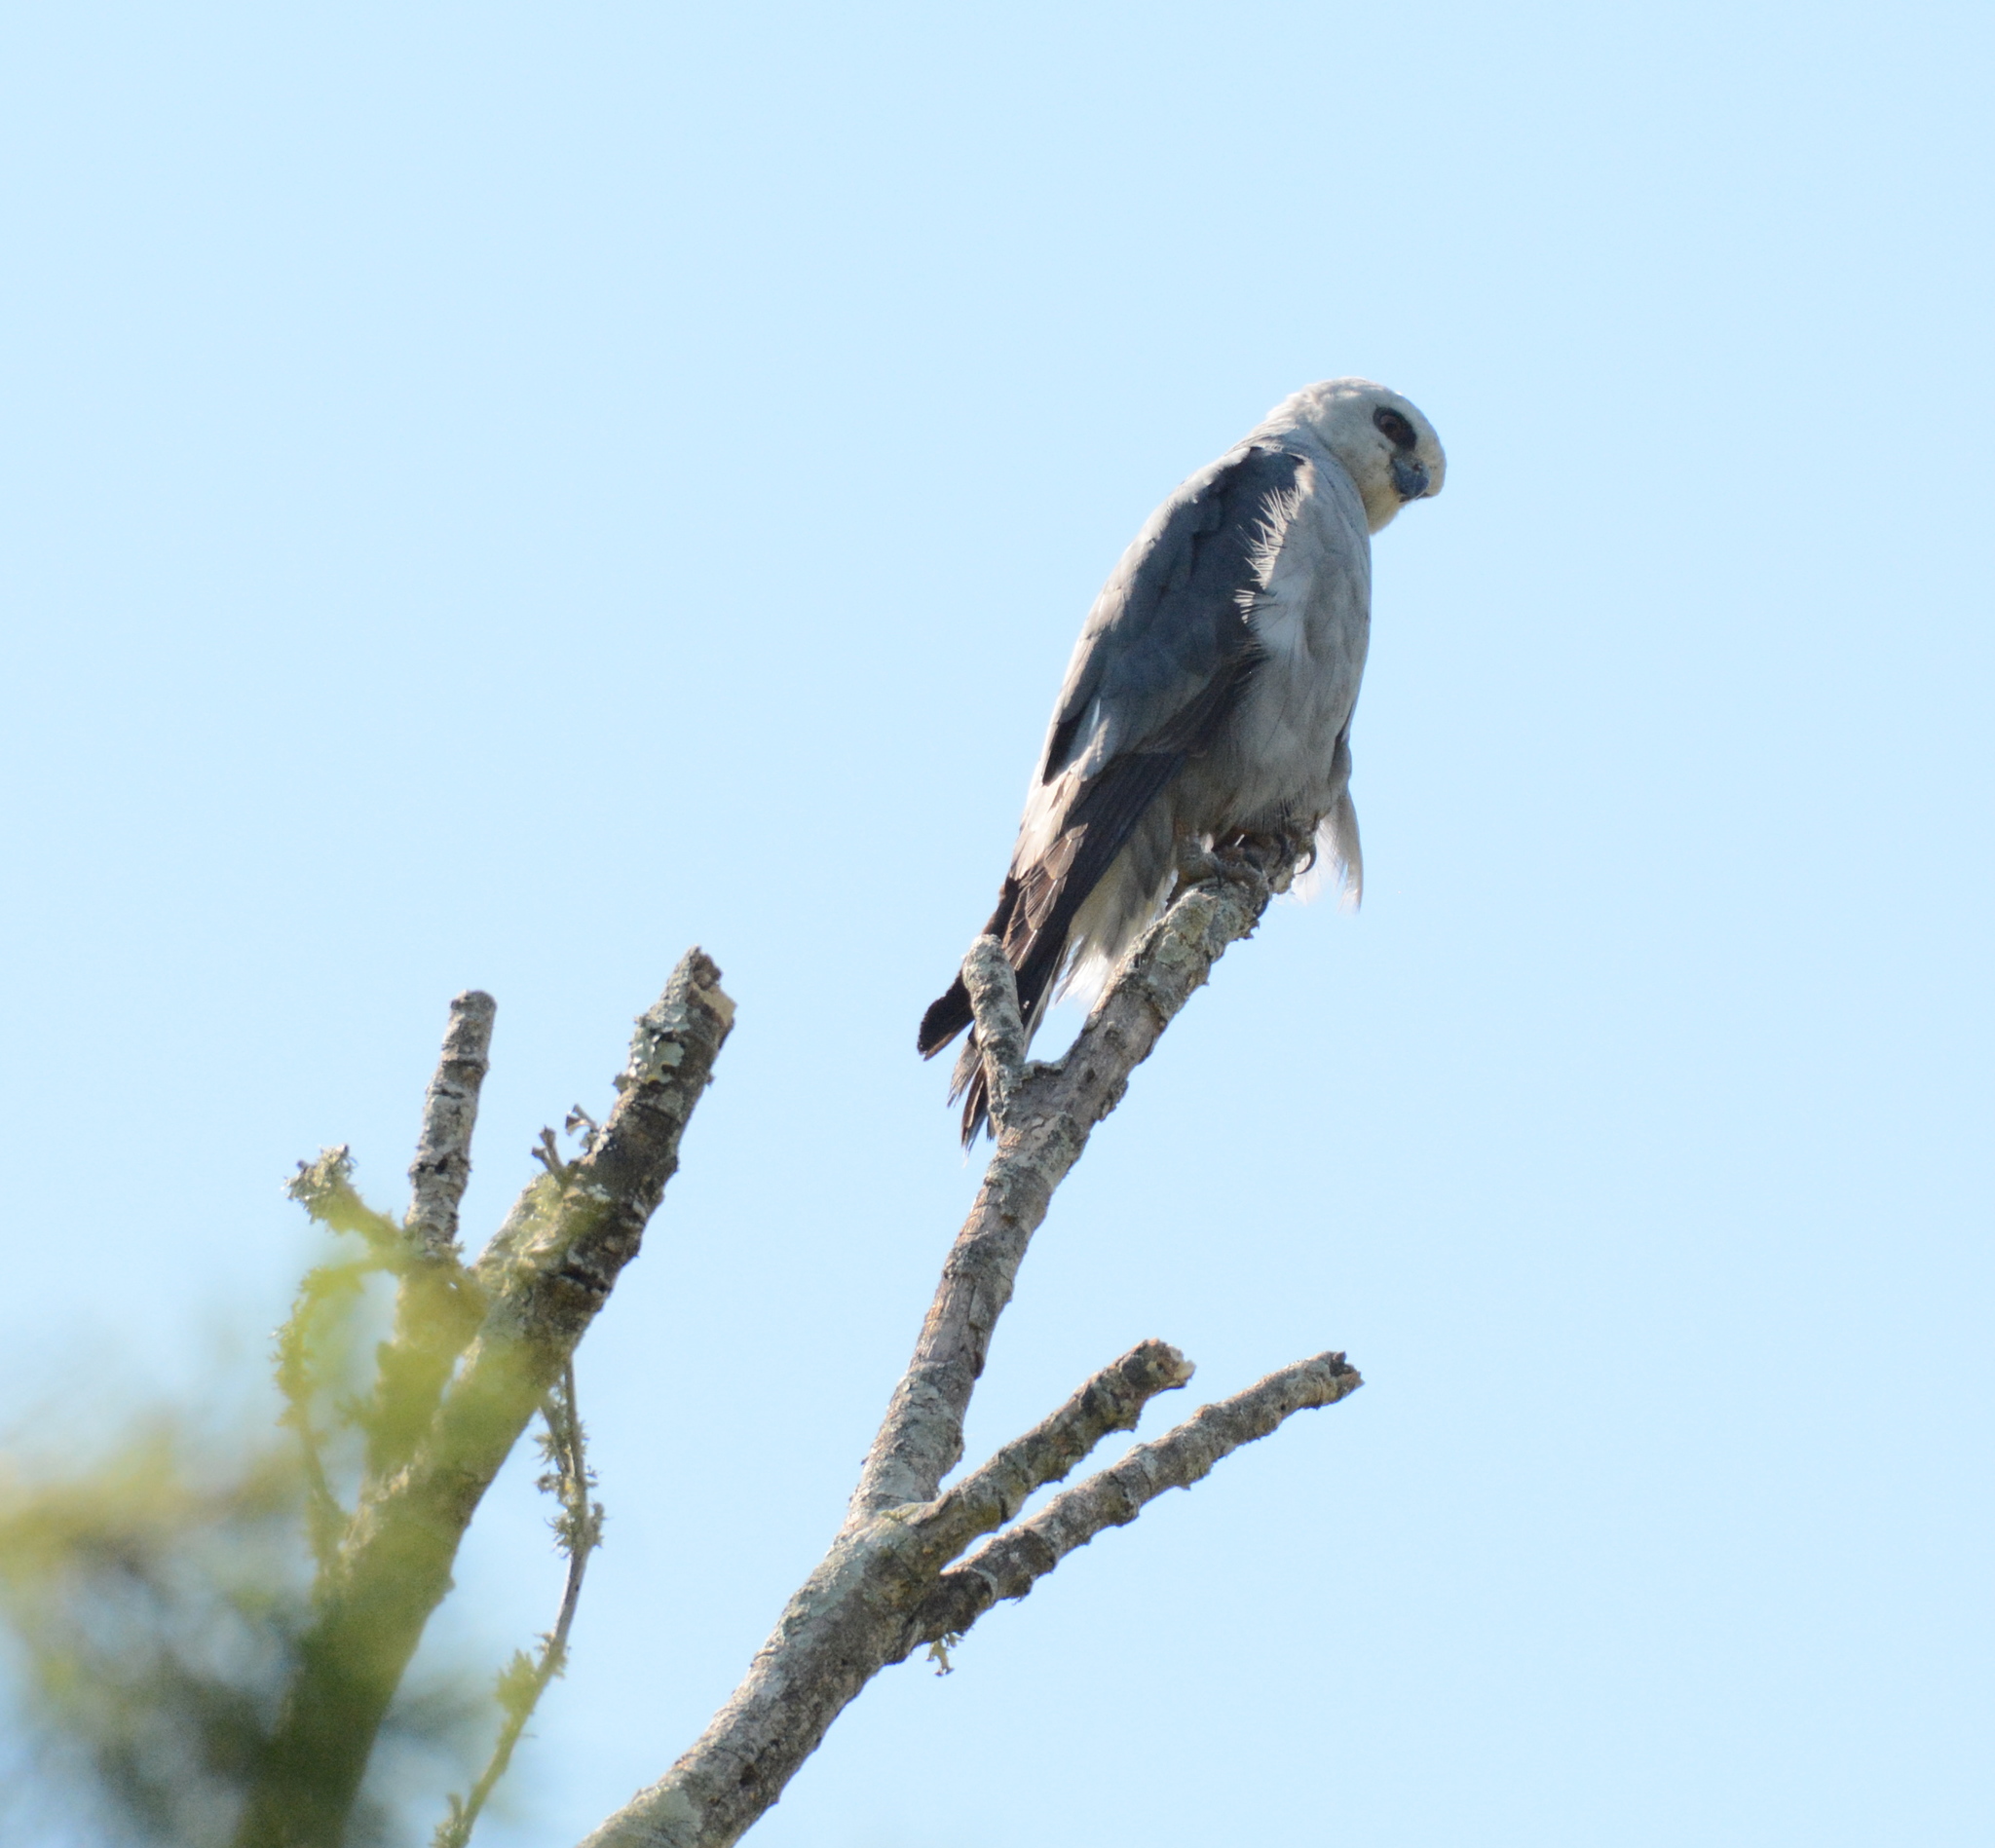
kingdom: Animalia
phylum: Chordata
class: Aves
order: Accipitriformes
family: Accipitridae
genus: Ictinia
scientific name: Ictinia mississippiensis
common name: Mississippi kite
